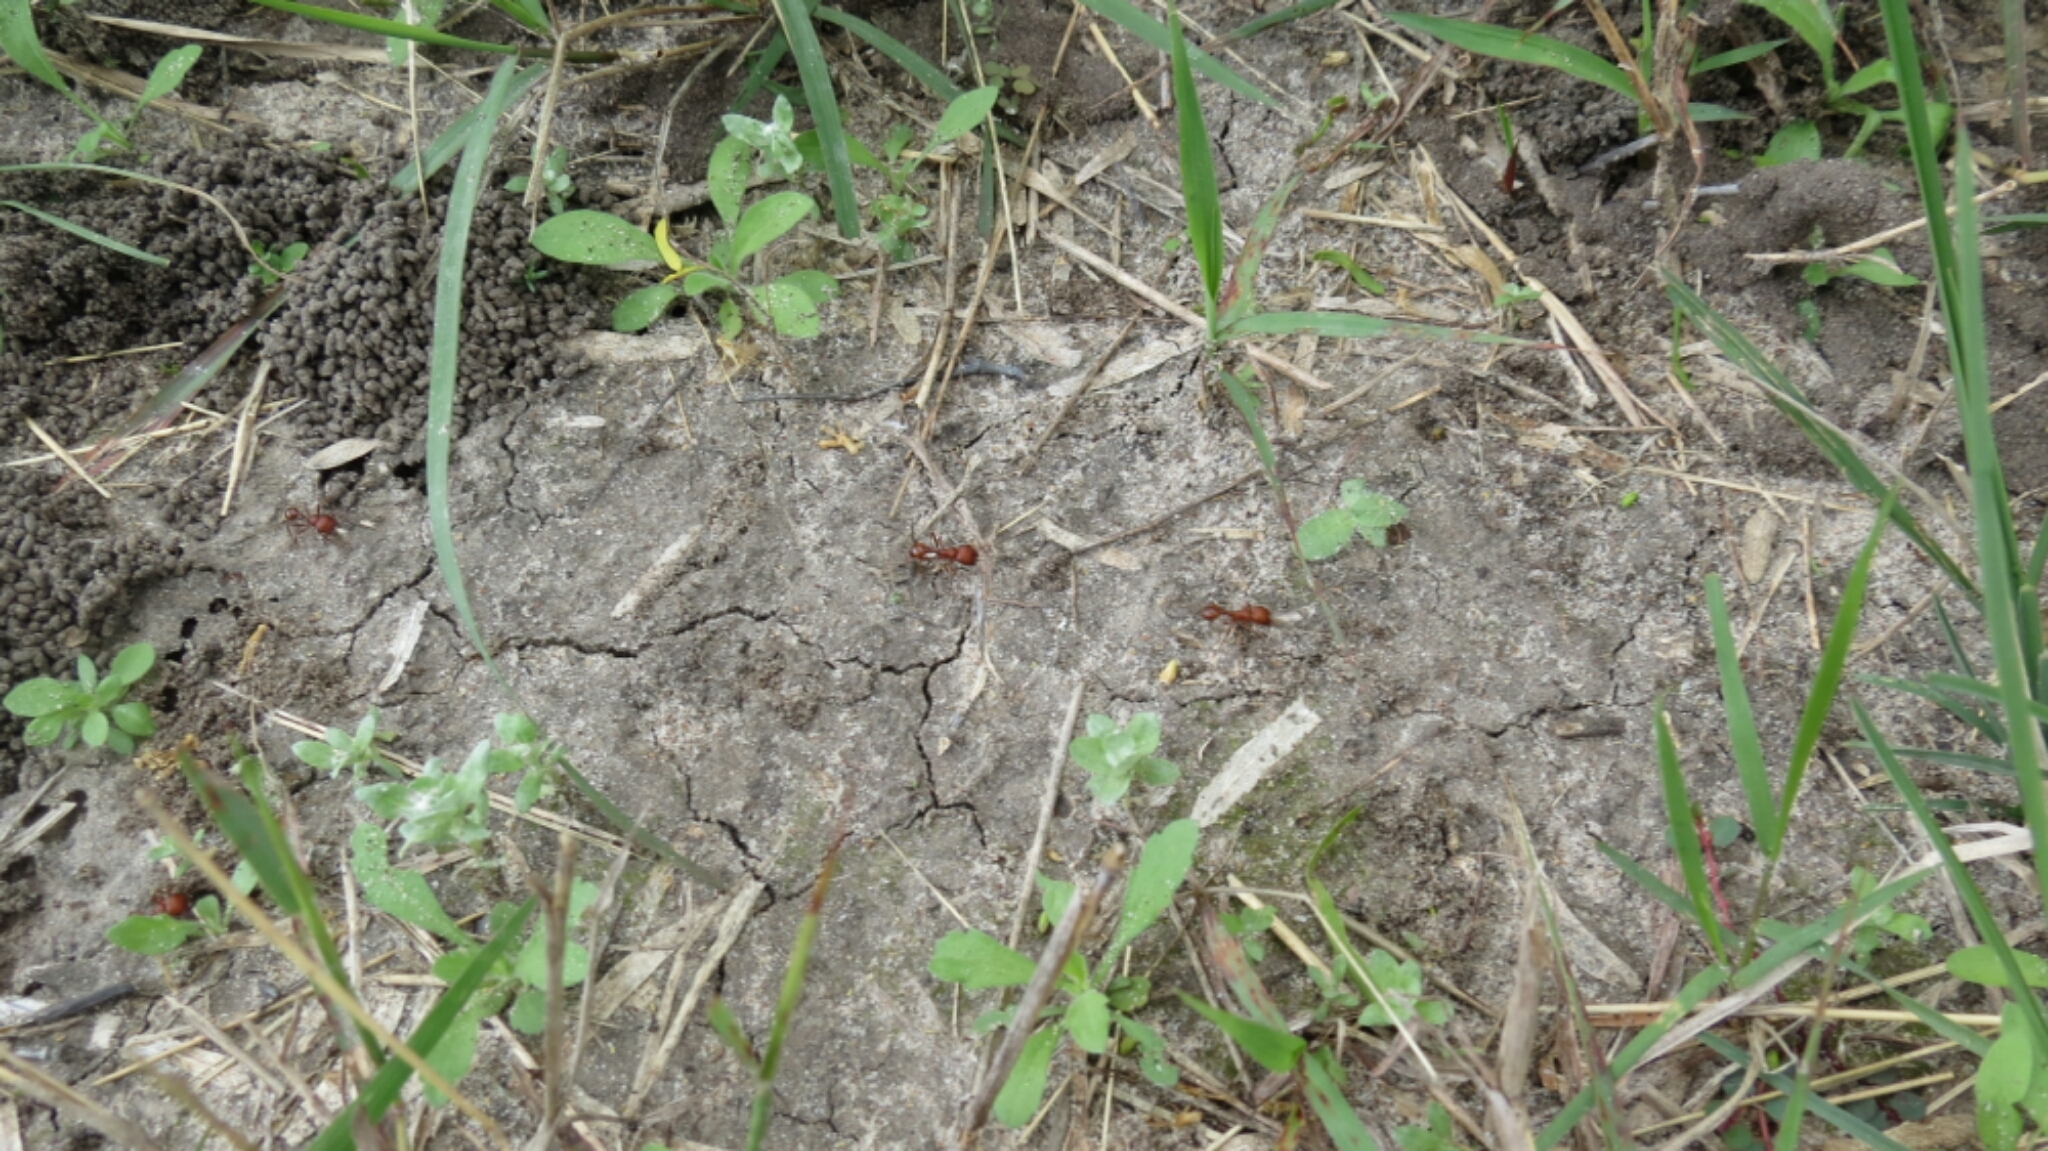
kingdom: Animalia
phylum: Arthropoda
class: Insecta
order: Hymenoptera
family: Formicidae
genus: Pogonomyrmex
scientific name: Pogonomyrmex barbatus
